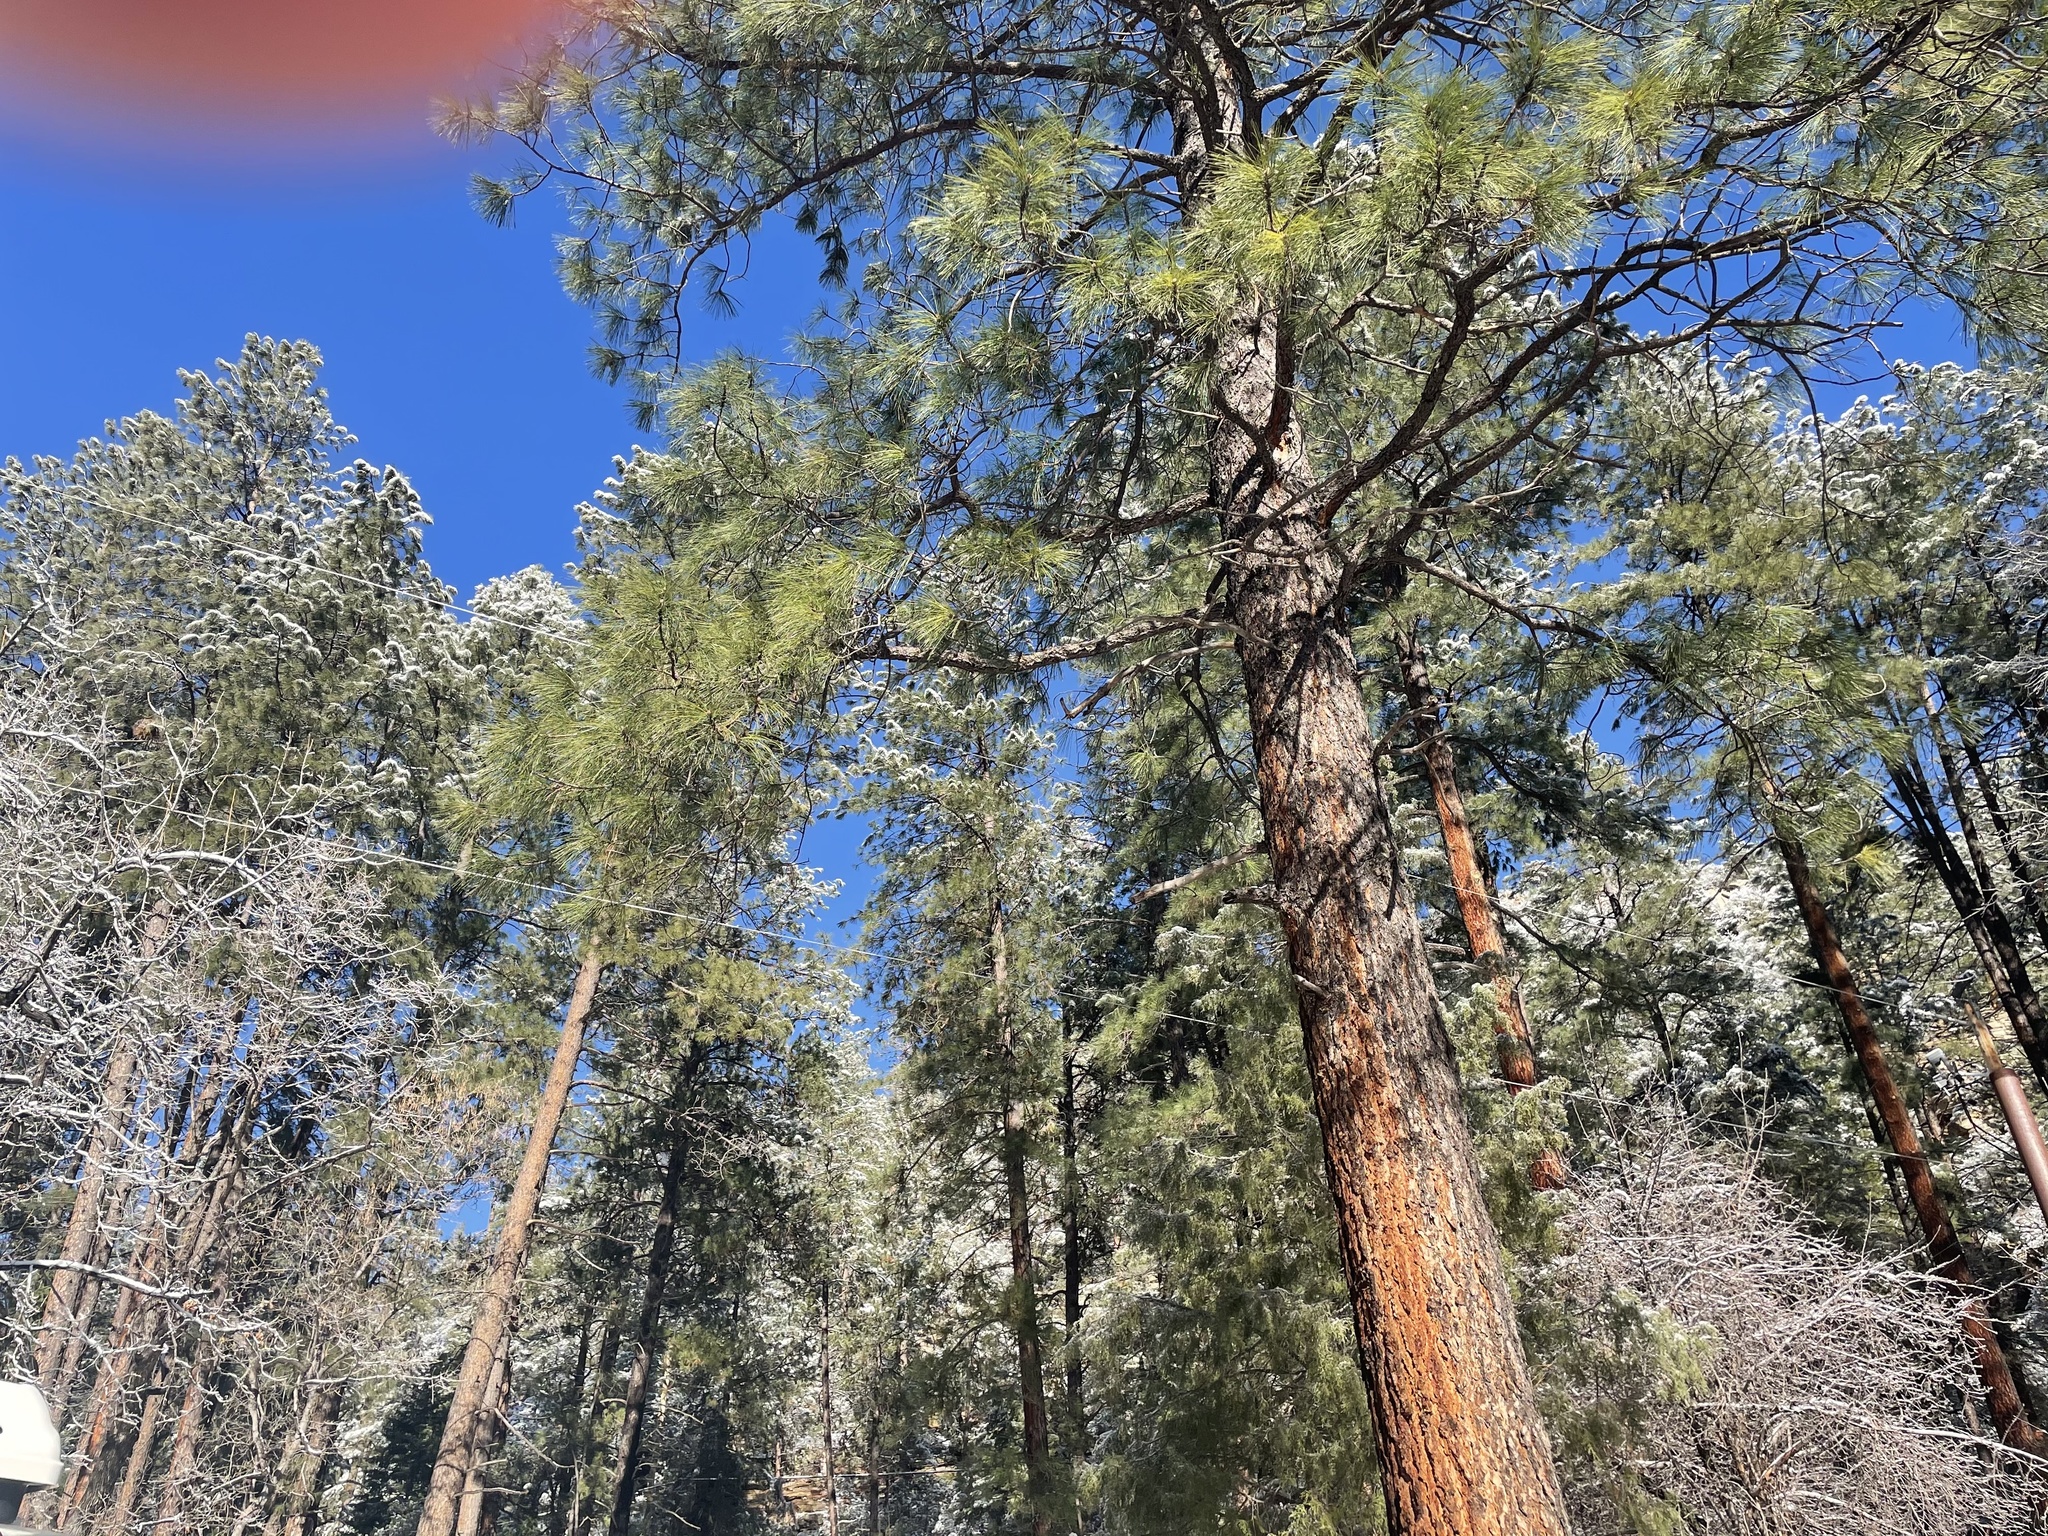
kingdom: Plantae
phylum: Tracheophyta
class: Pinopsida
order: Pinales
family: Pinaceae
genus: Pinus
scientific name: Pinus ponderosa
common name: Western yellow-pine
